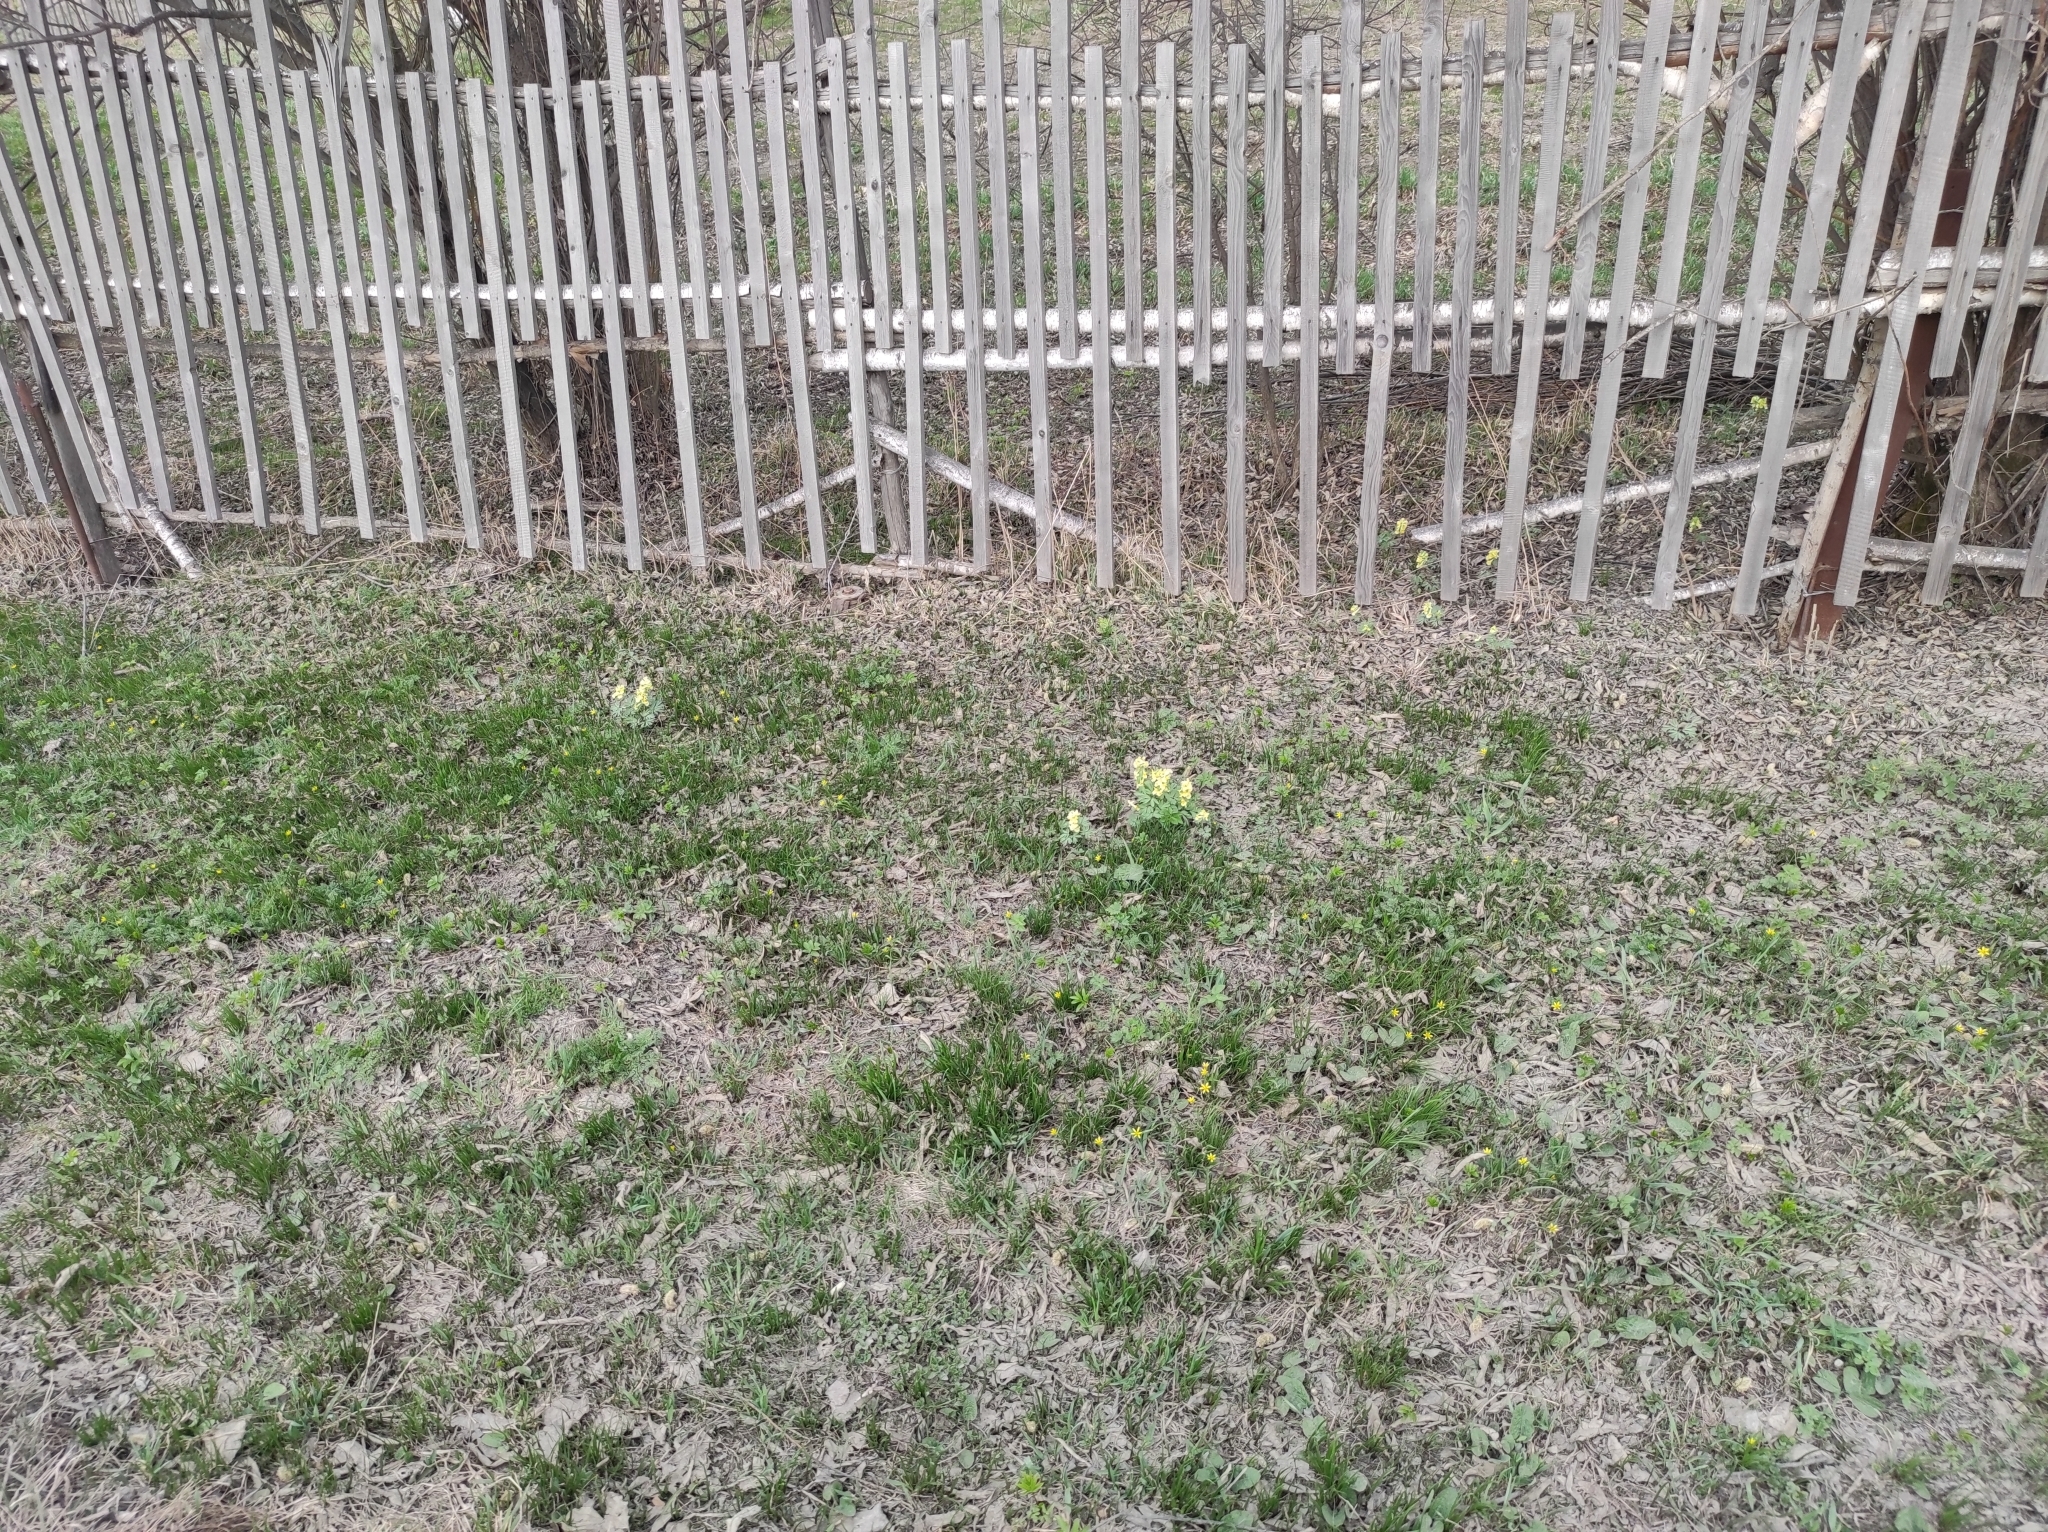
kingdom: Plantae
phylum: Tracheophyta
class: Magnoliopsida
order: Ranunculales
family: Papaveraceae
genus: Corydalis
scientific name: Corydalis bracteata
